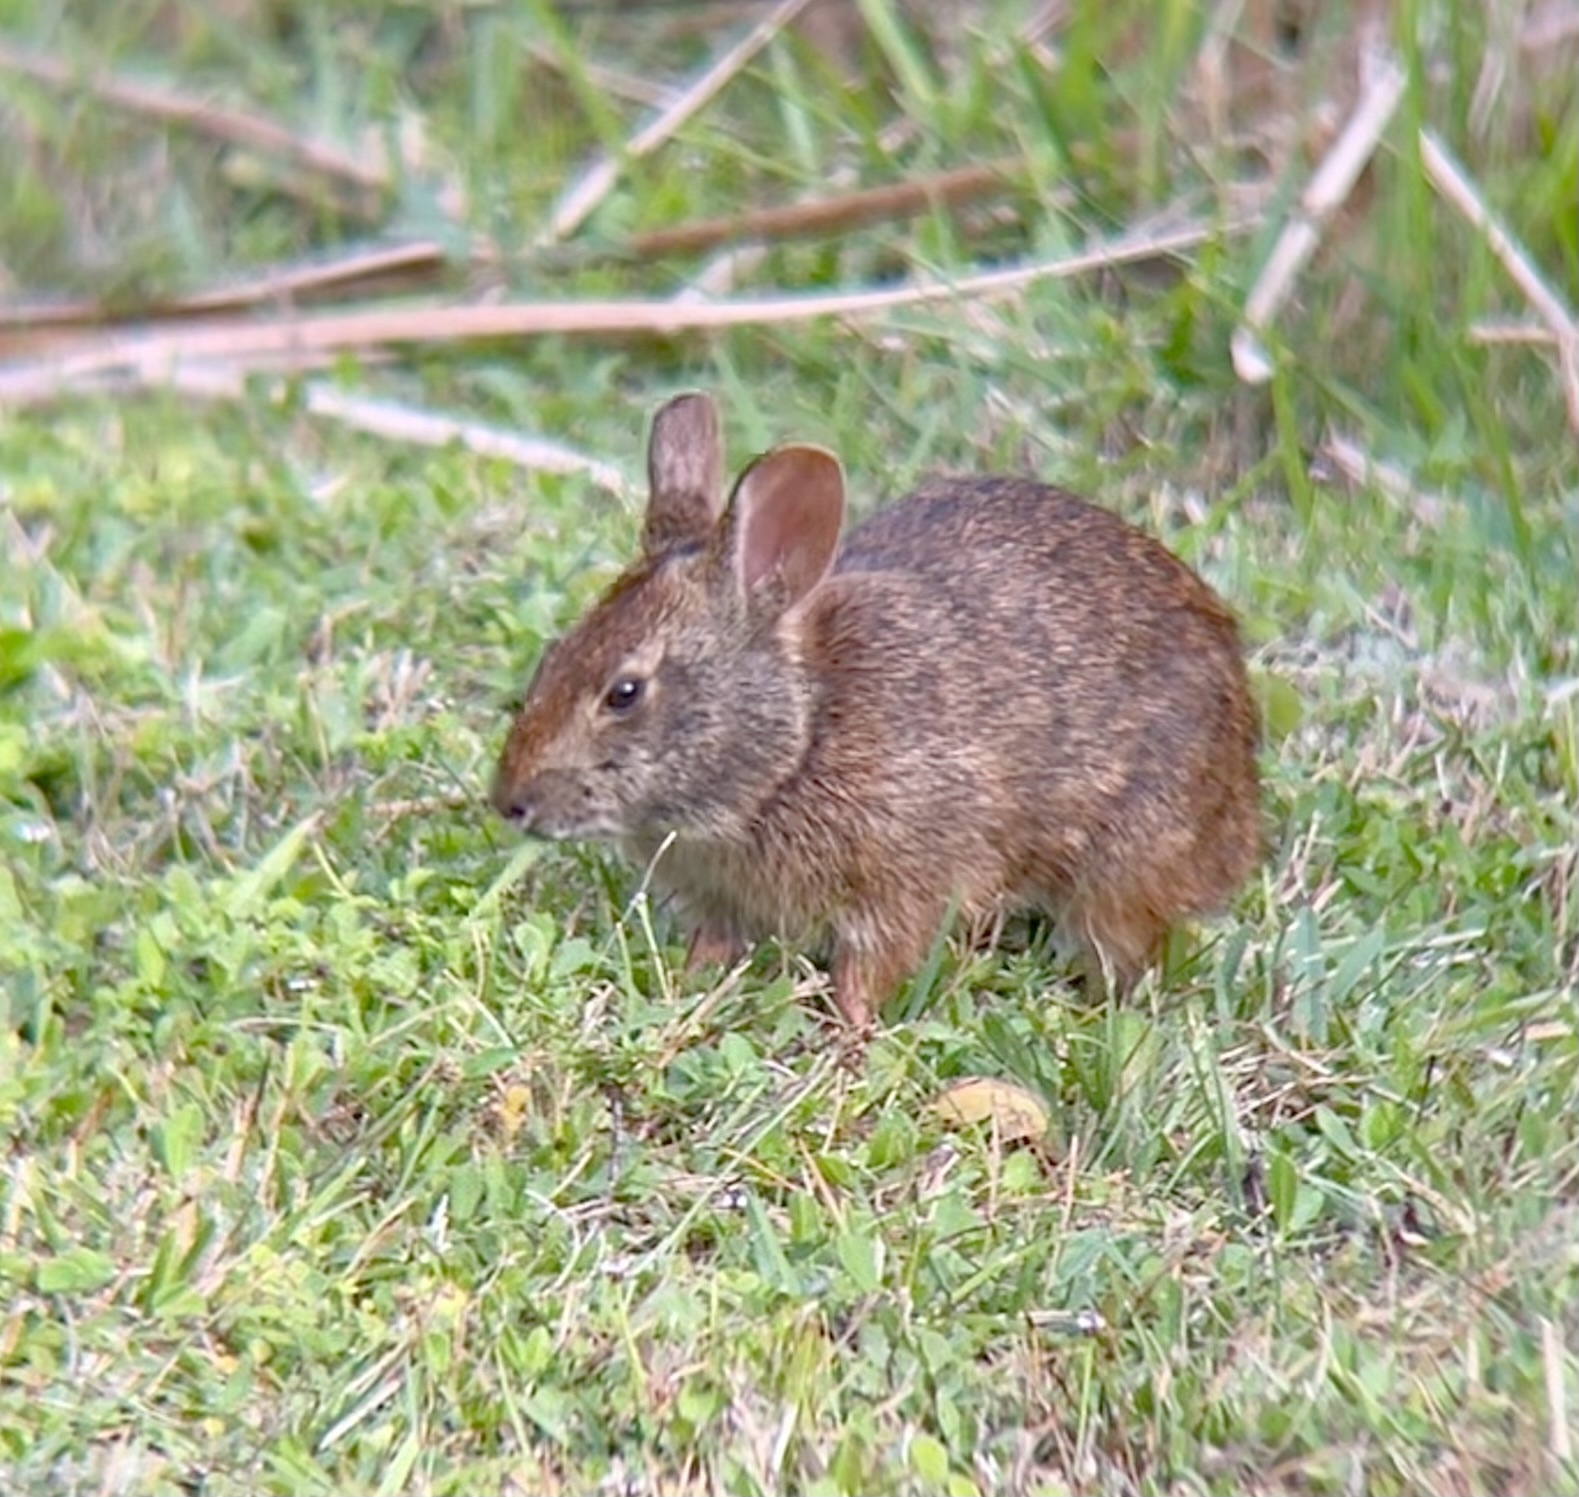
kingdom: Animalia
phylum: Chordata
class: Mammalia
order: Lagomorpha
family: Leporidae
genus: Sylvilagus
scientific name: Sylvilagus palustris
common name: Marsh rabbit
